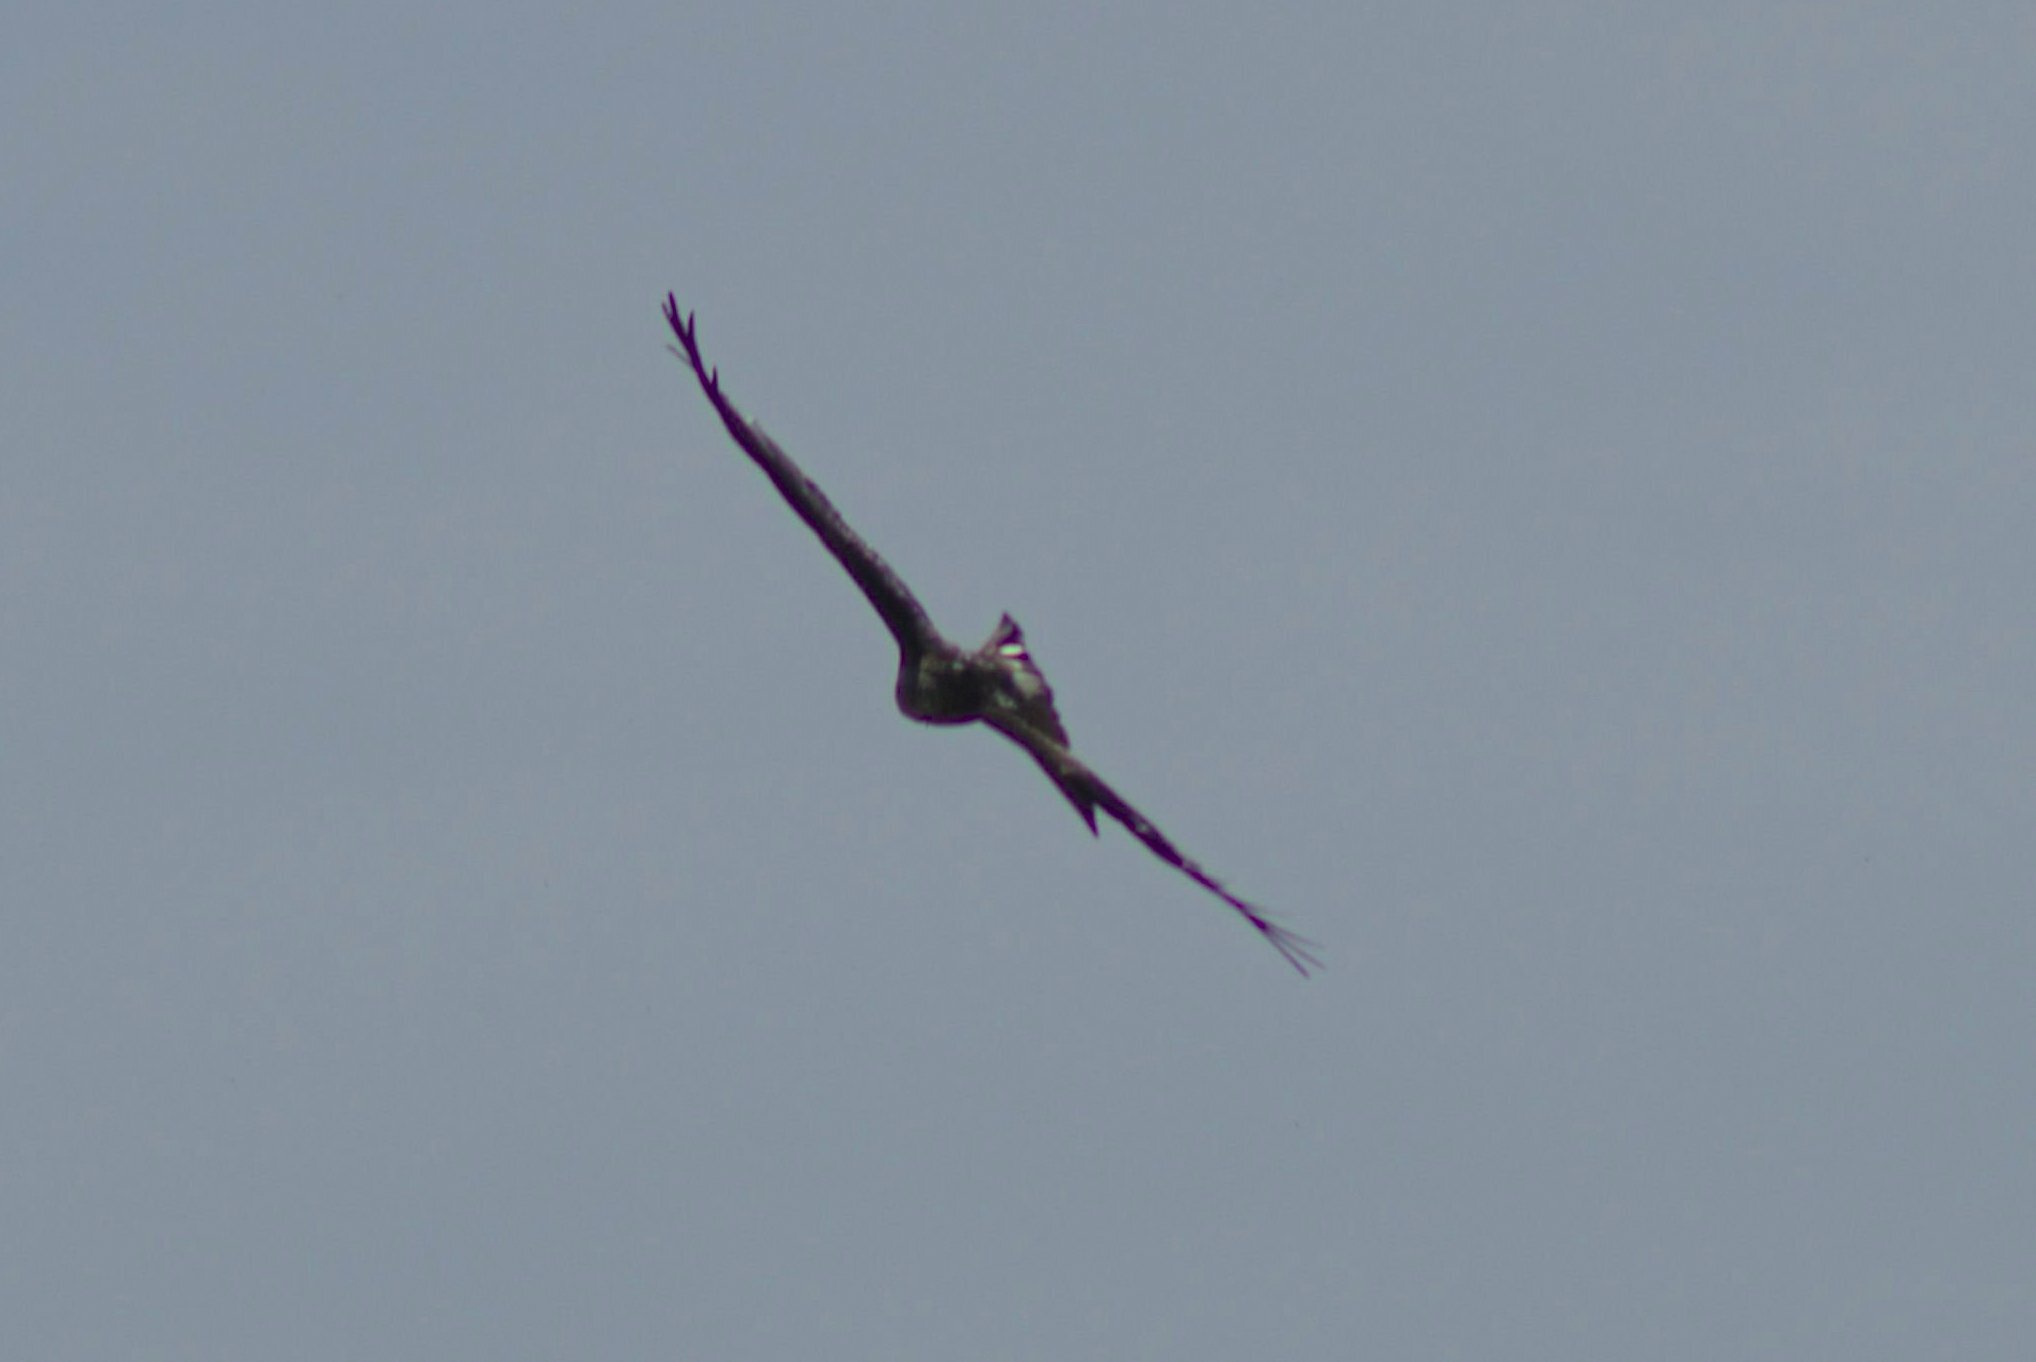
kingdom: Animalia
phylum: Chordata
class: Aves
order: Accipitriformes
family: Accipitridae
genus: Milvus
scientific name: Milvus milvus
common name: Red kite
